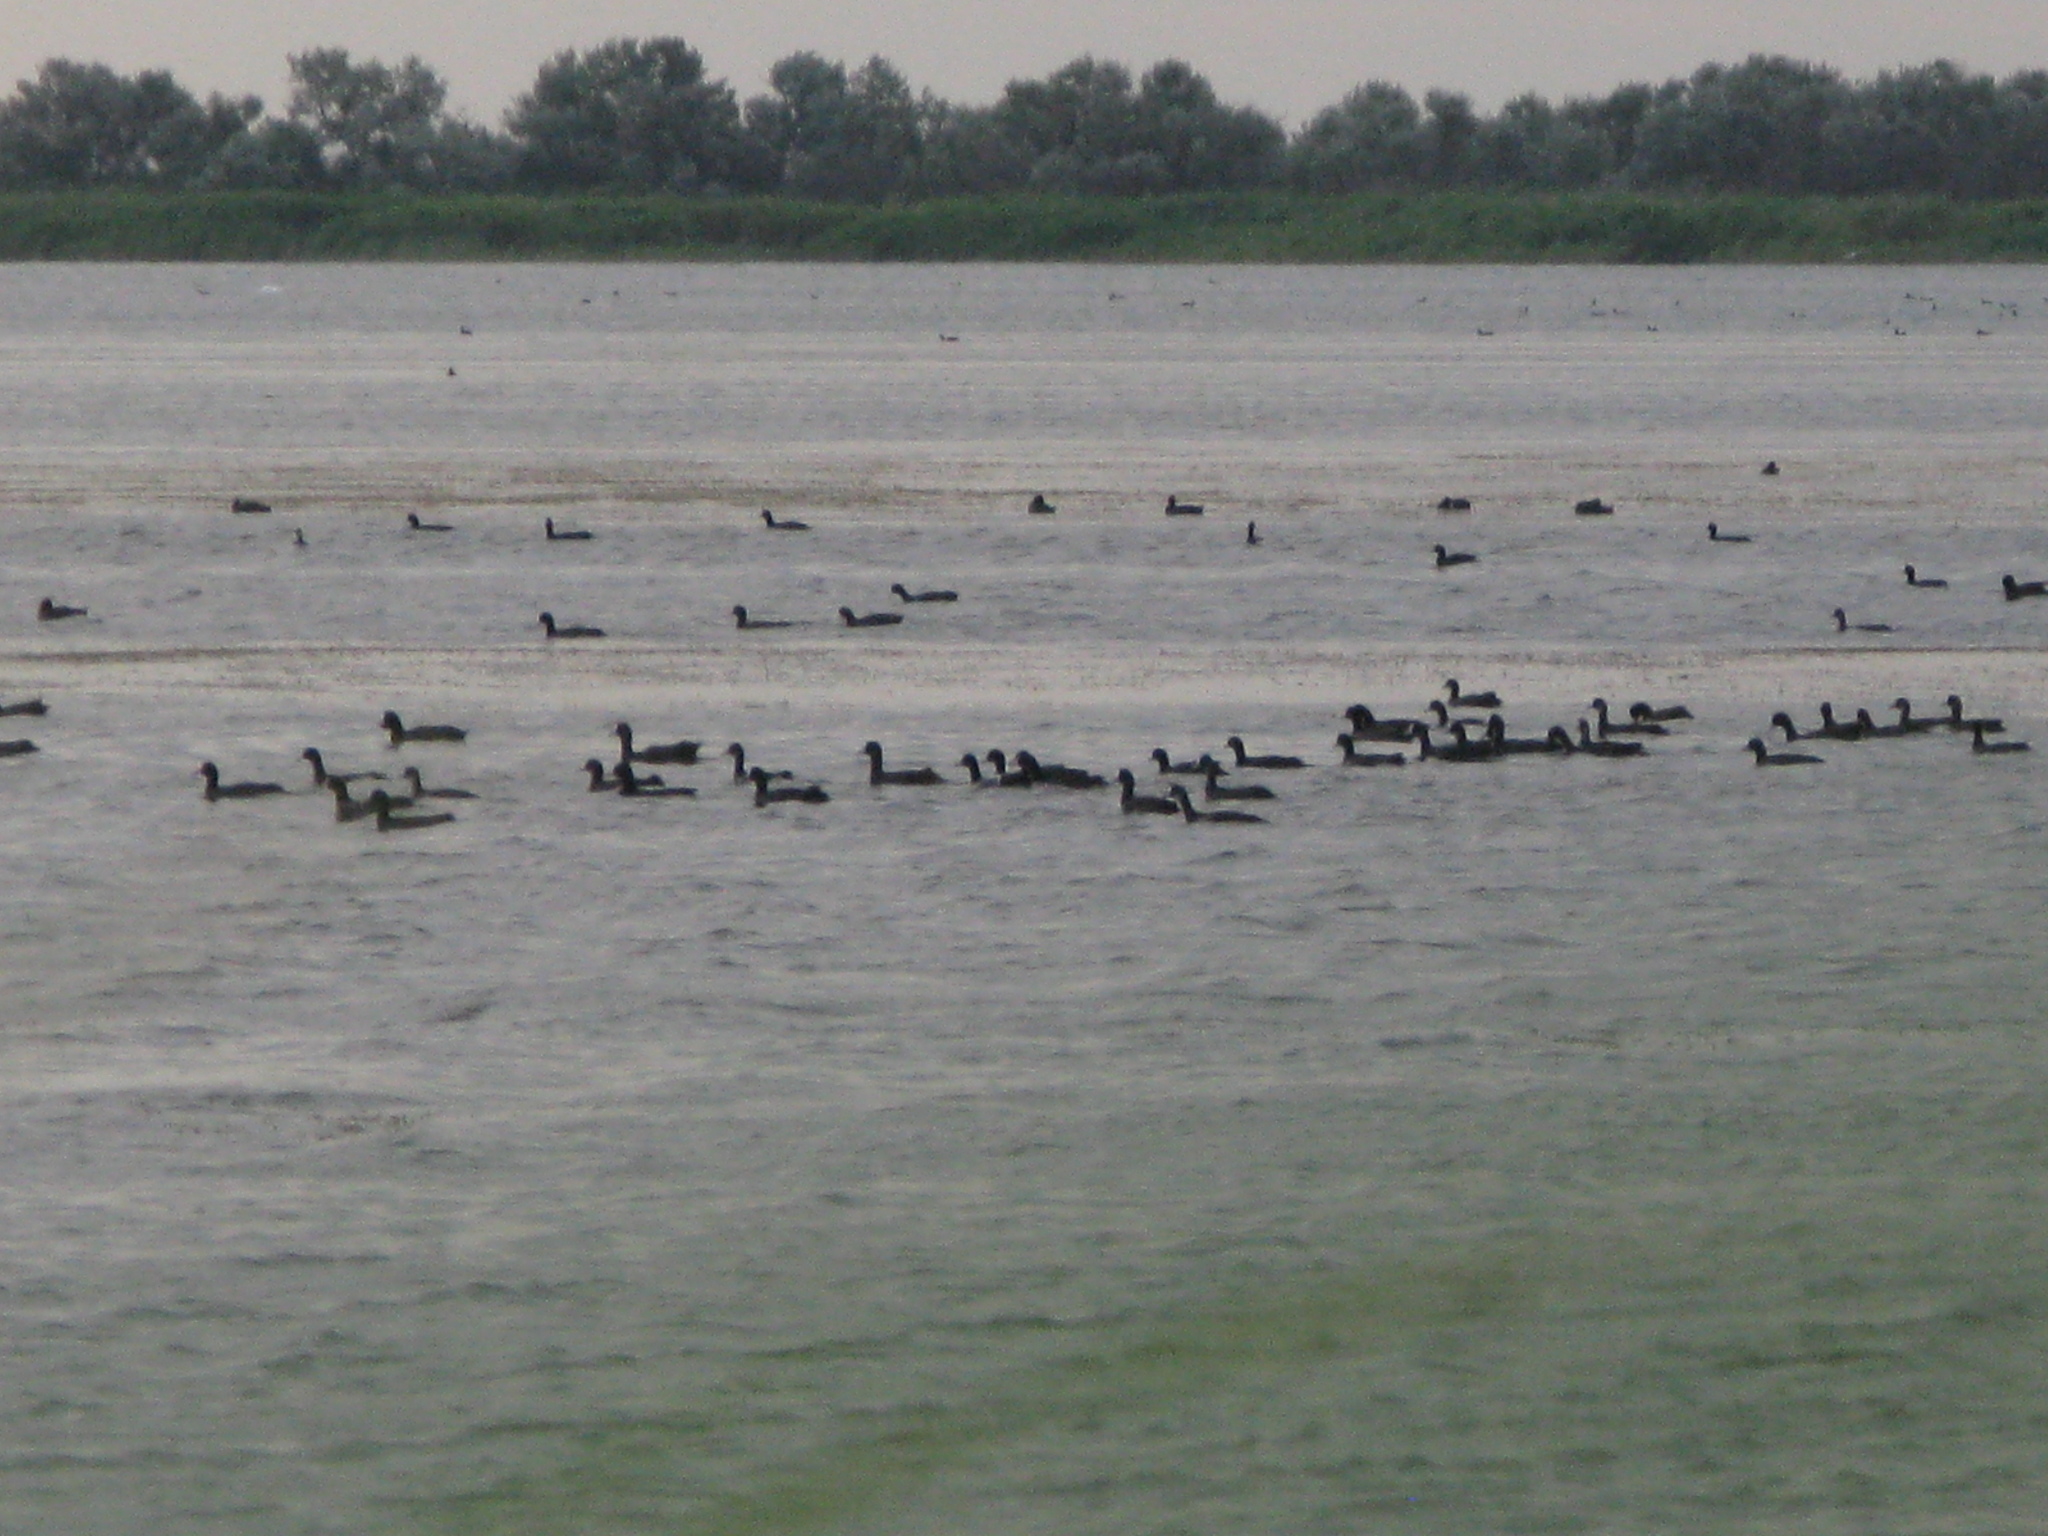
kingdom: Animalia
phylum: Chordata
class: Aves
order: Gruiformes
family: Rallidae
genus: Fulica
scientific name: Fulica atra
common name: Eurasian coot
